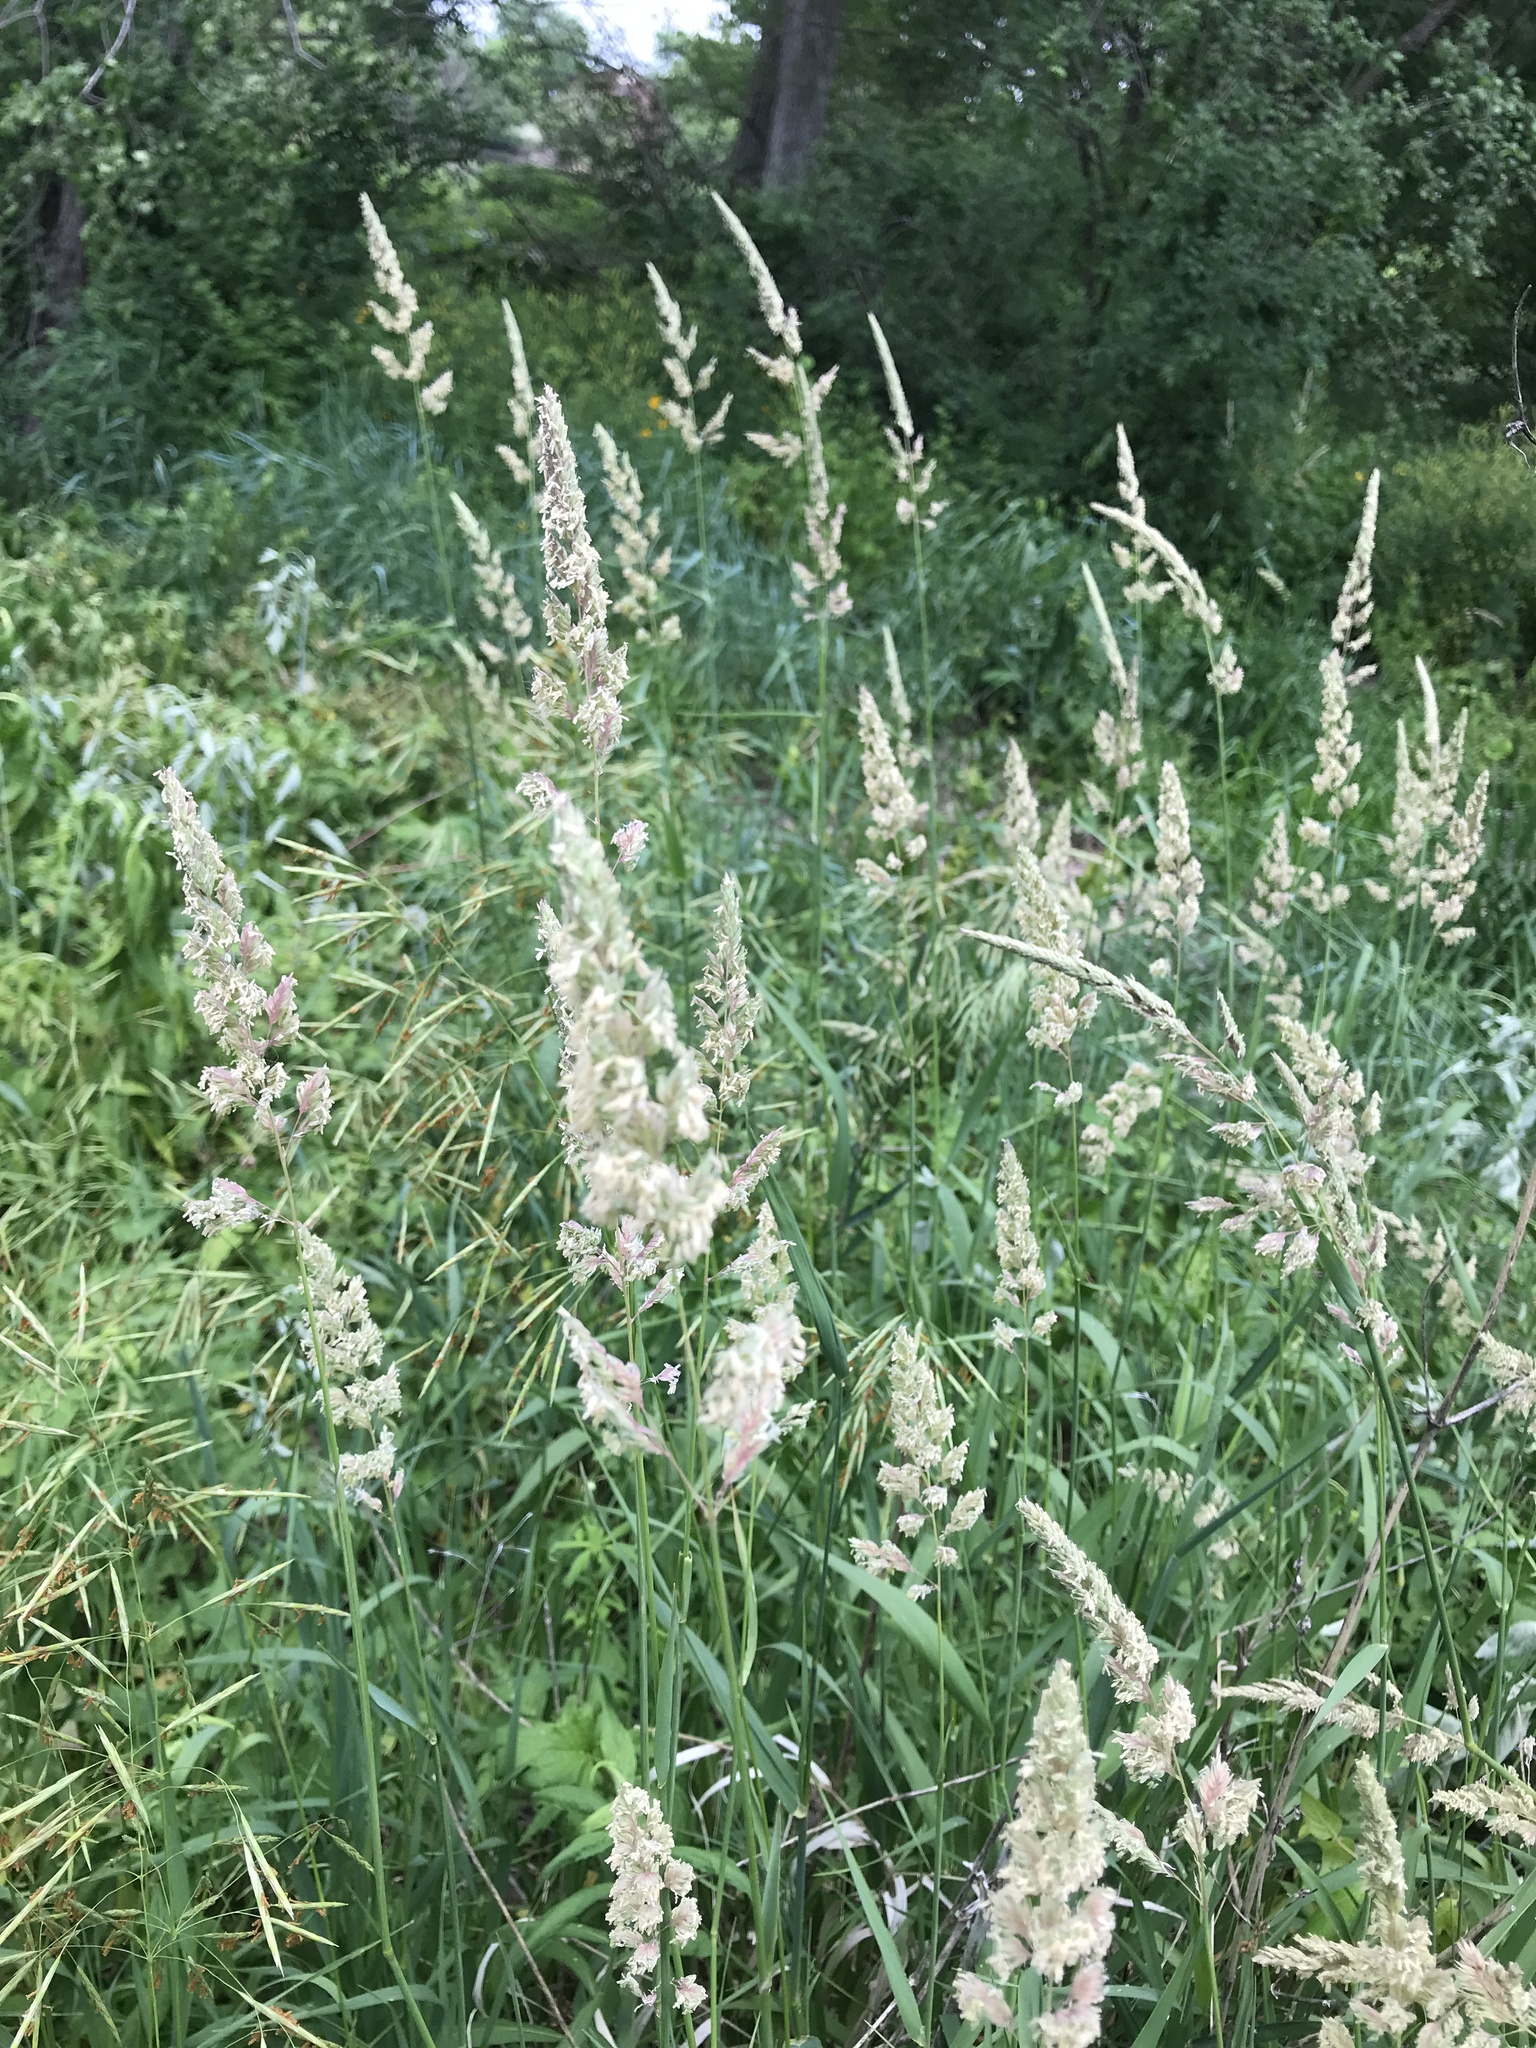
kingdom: Plantae
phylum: Tracheophyta
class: Liliopsida
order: Poales
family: Poaceae
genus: Phalaris
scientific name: Phalaris arundinacea
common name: Reed canary-grass
